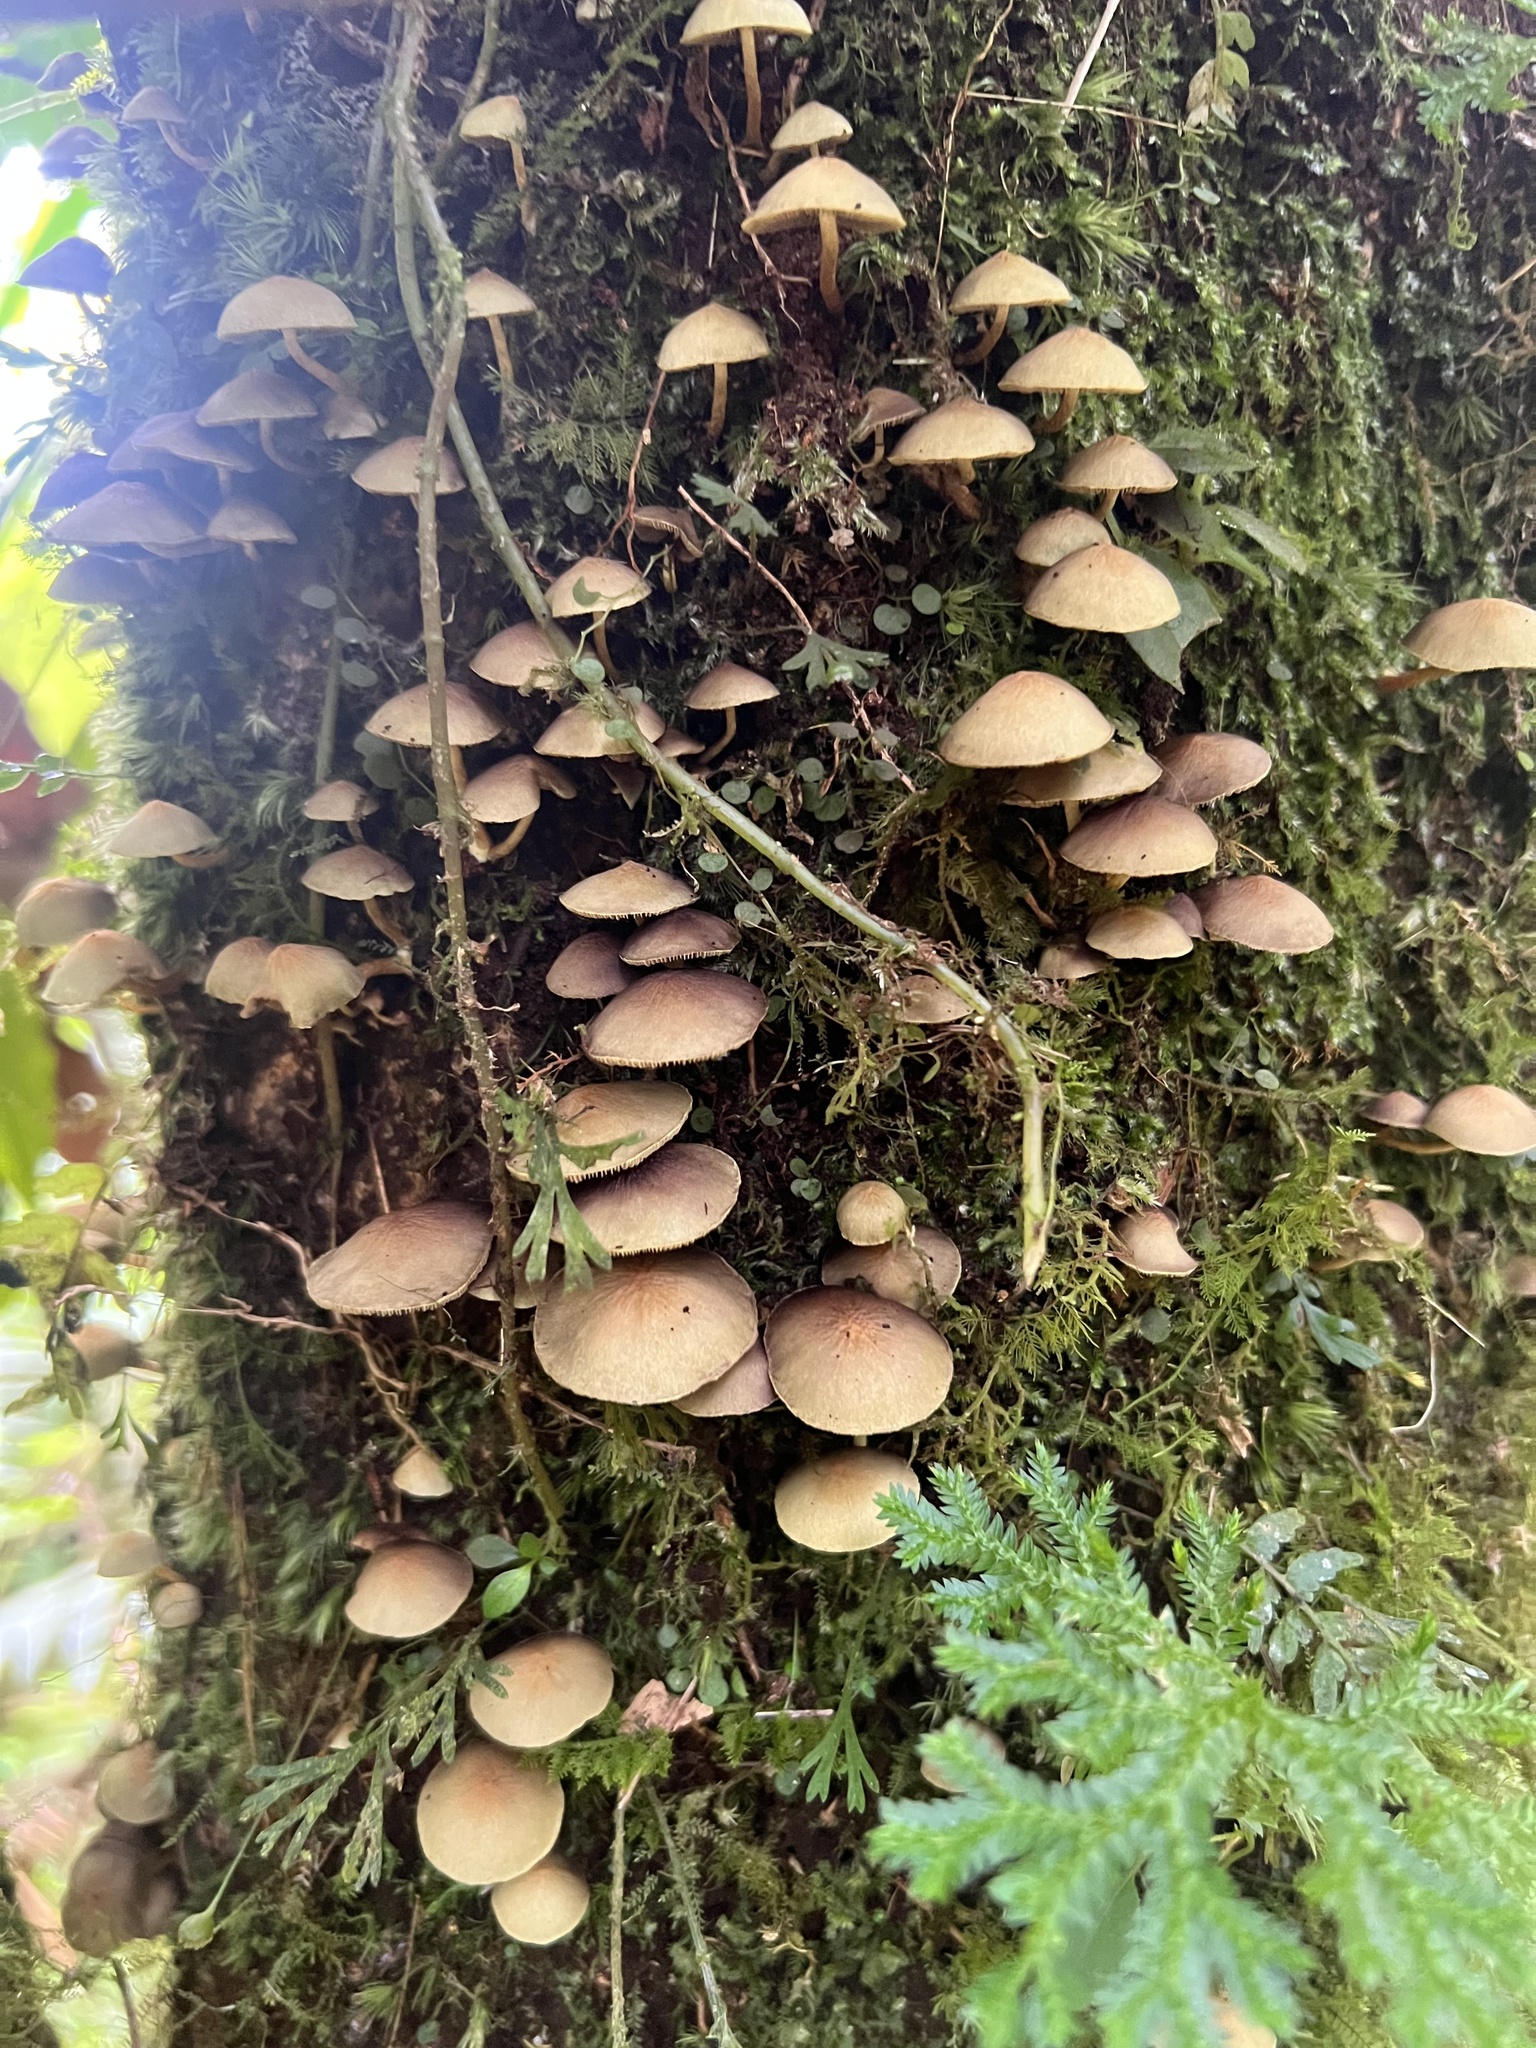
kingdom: Fungi
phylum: Basidiomycota
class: Agaricomycetes
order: Agaricales
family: Strophariaceae
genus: Hypholoma
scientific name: Hypholoma fasciculare
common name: Sulphur tuft
